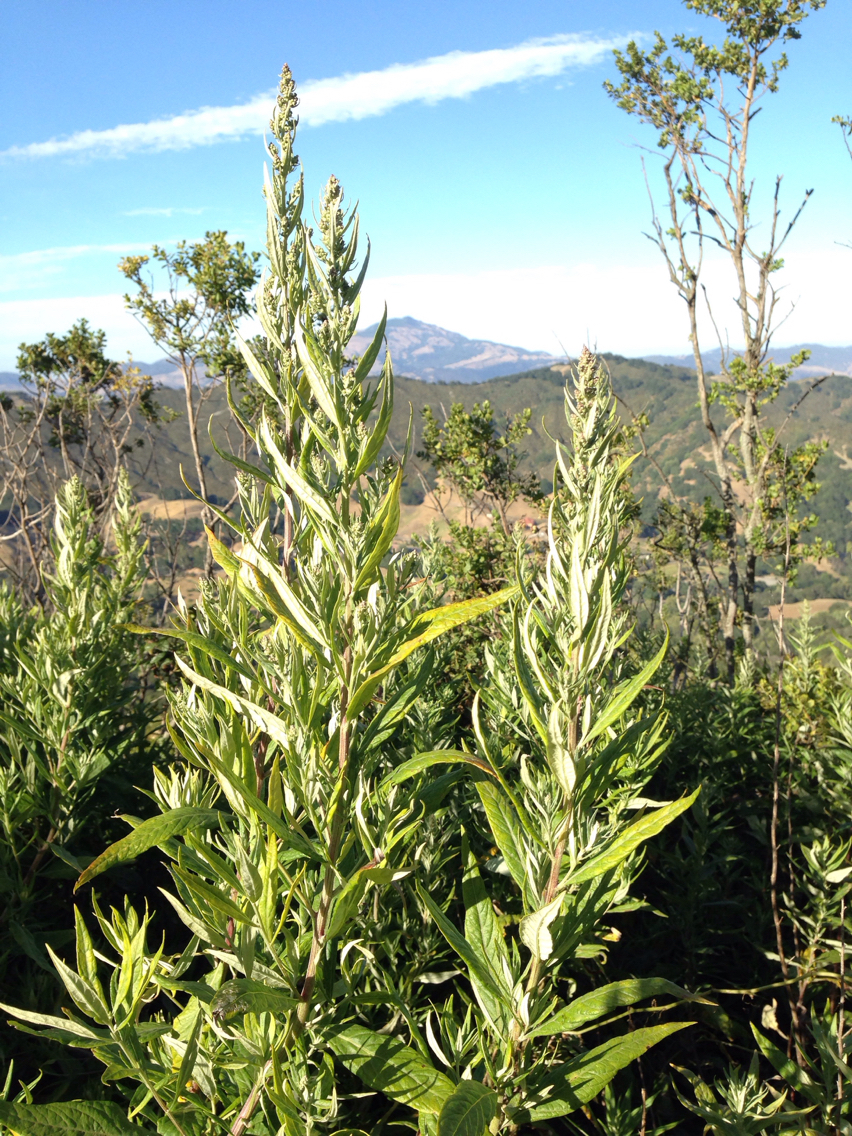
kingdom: Plantae
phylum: Tracheophyta
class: Magnoliopsida
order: Asterales
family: Asteraceae
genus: Artemisia
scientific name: Artemisia douglasiana
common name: Northwest mugwort
